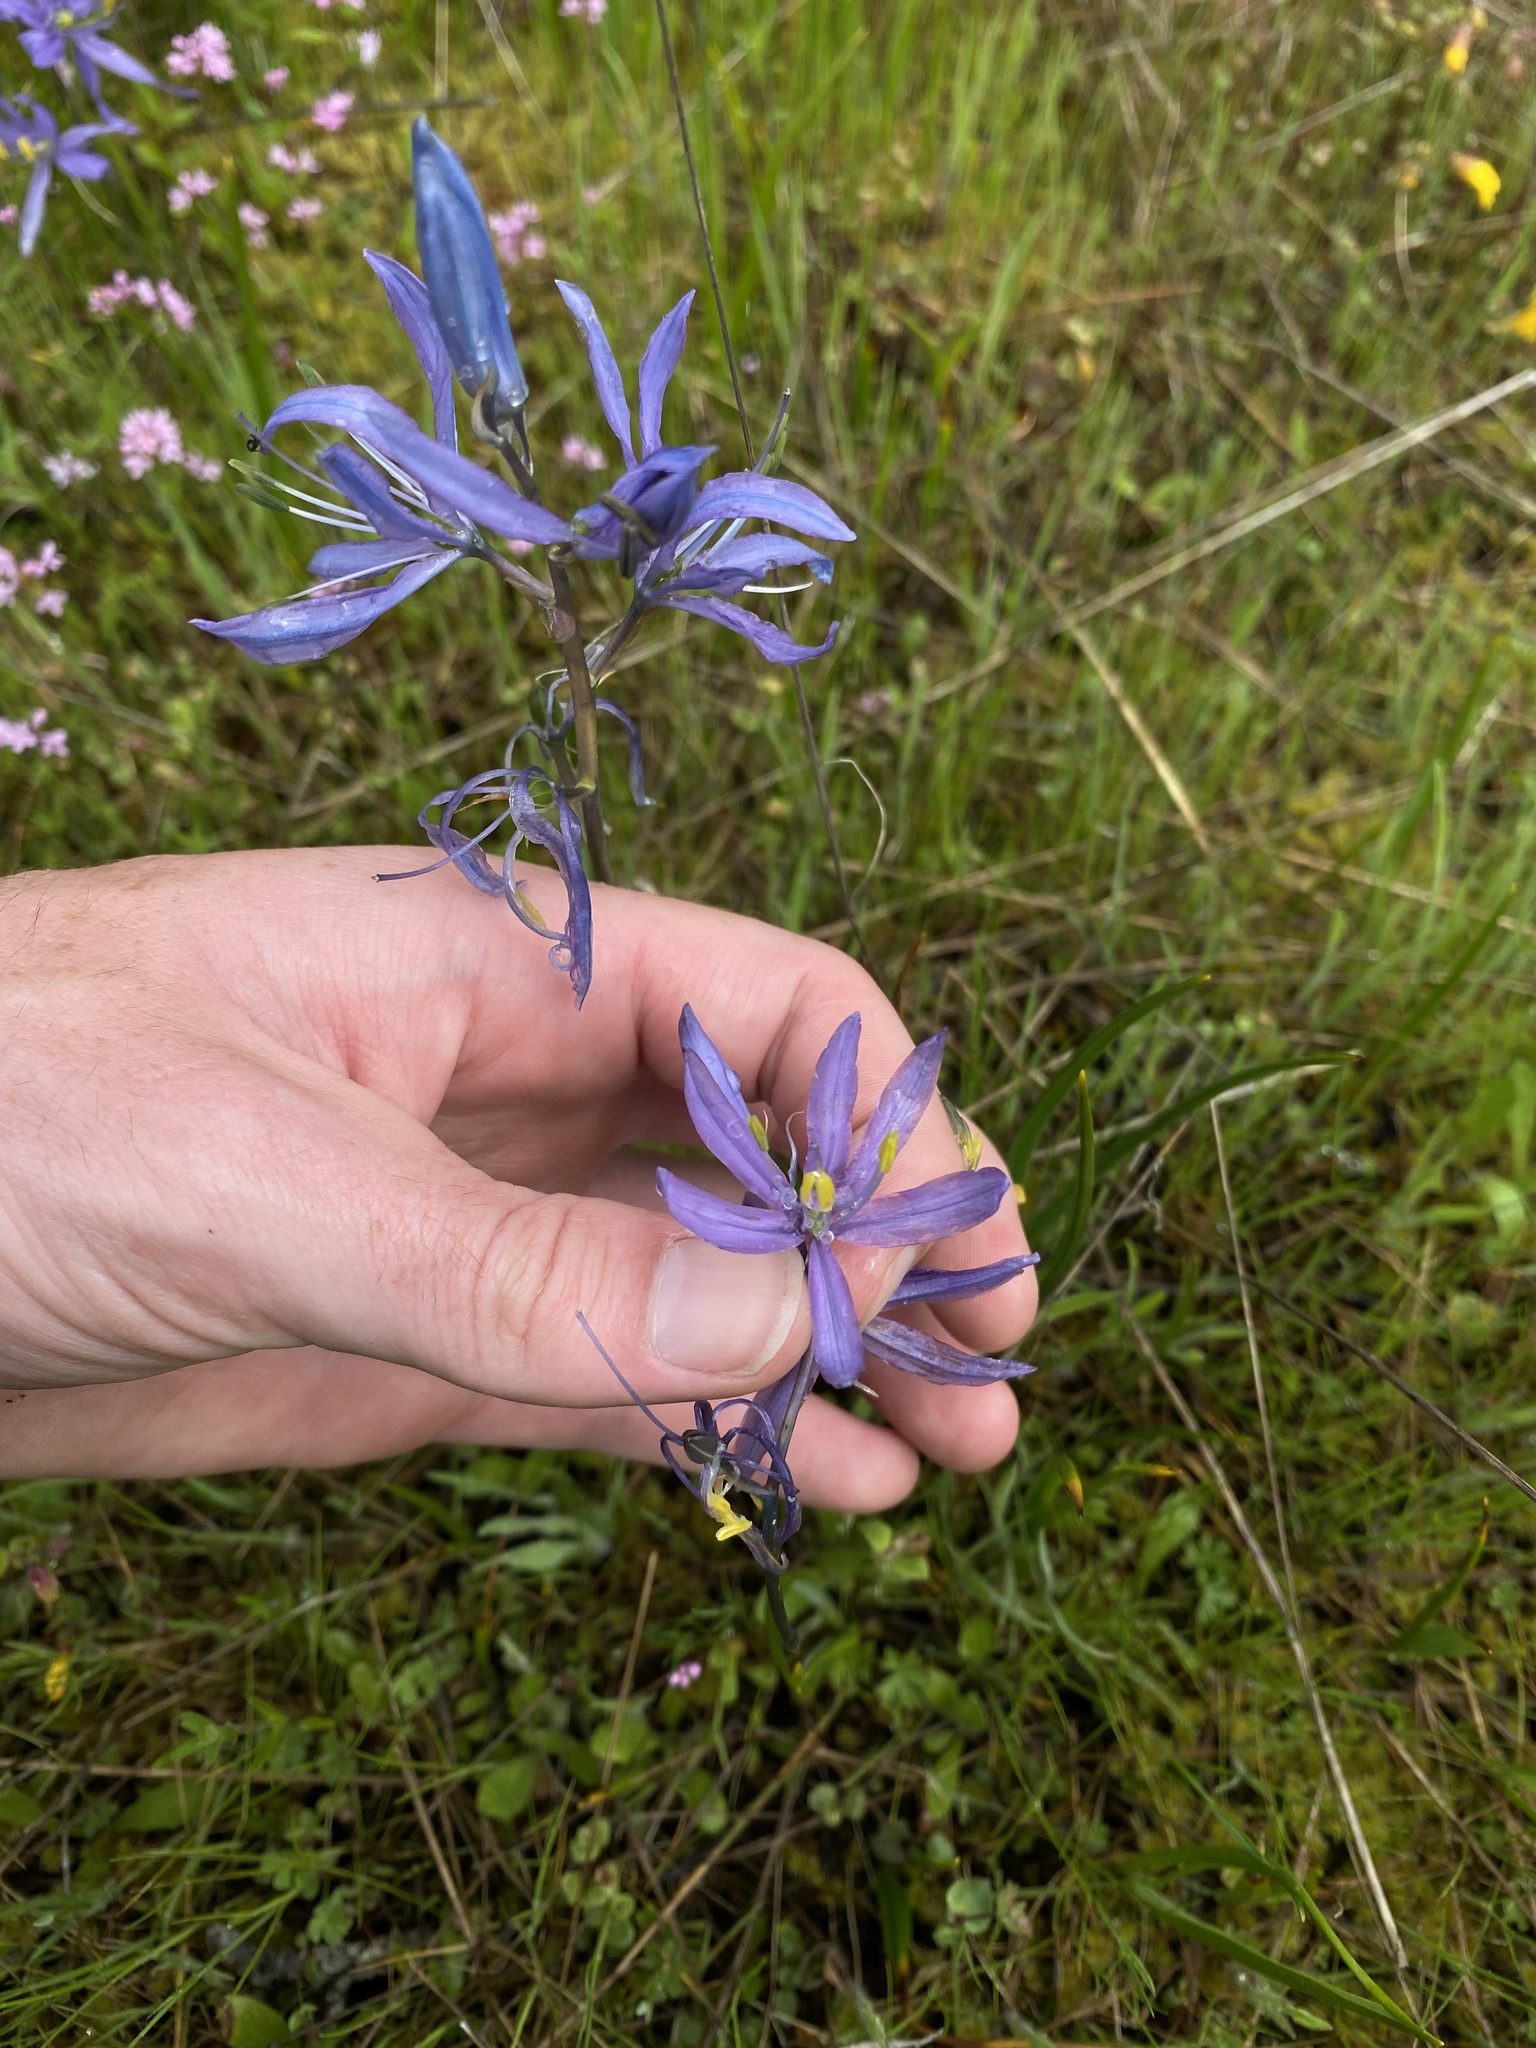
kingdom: Plantae
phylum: Tracheophyta
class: Liliopsida
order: Asparagales
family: Asparagaceae
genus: Camassia
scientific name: Camassia quamash
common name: Common camas
